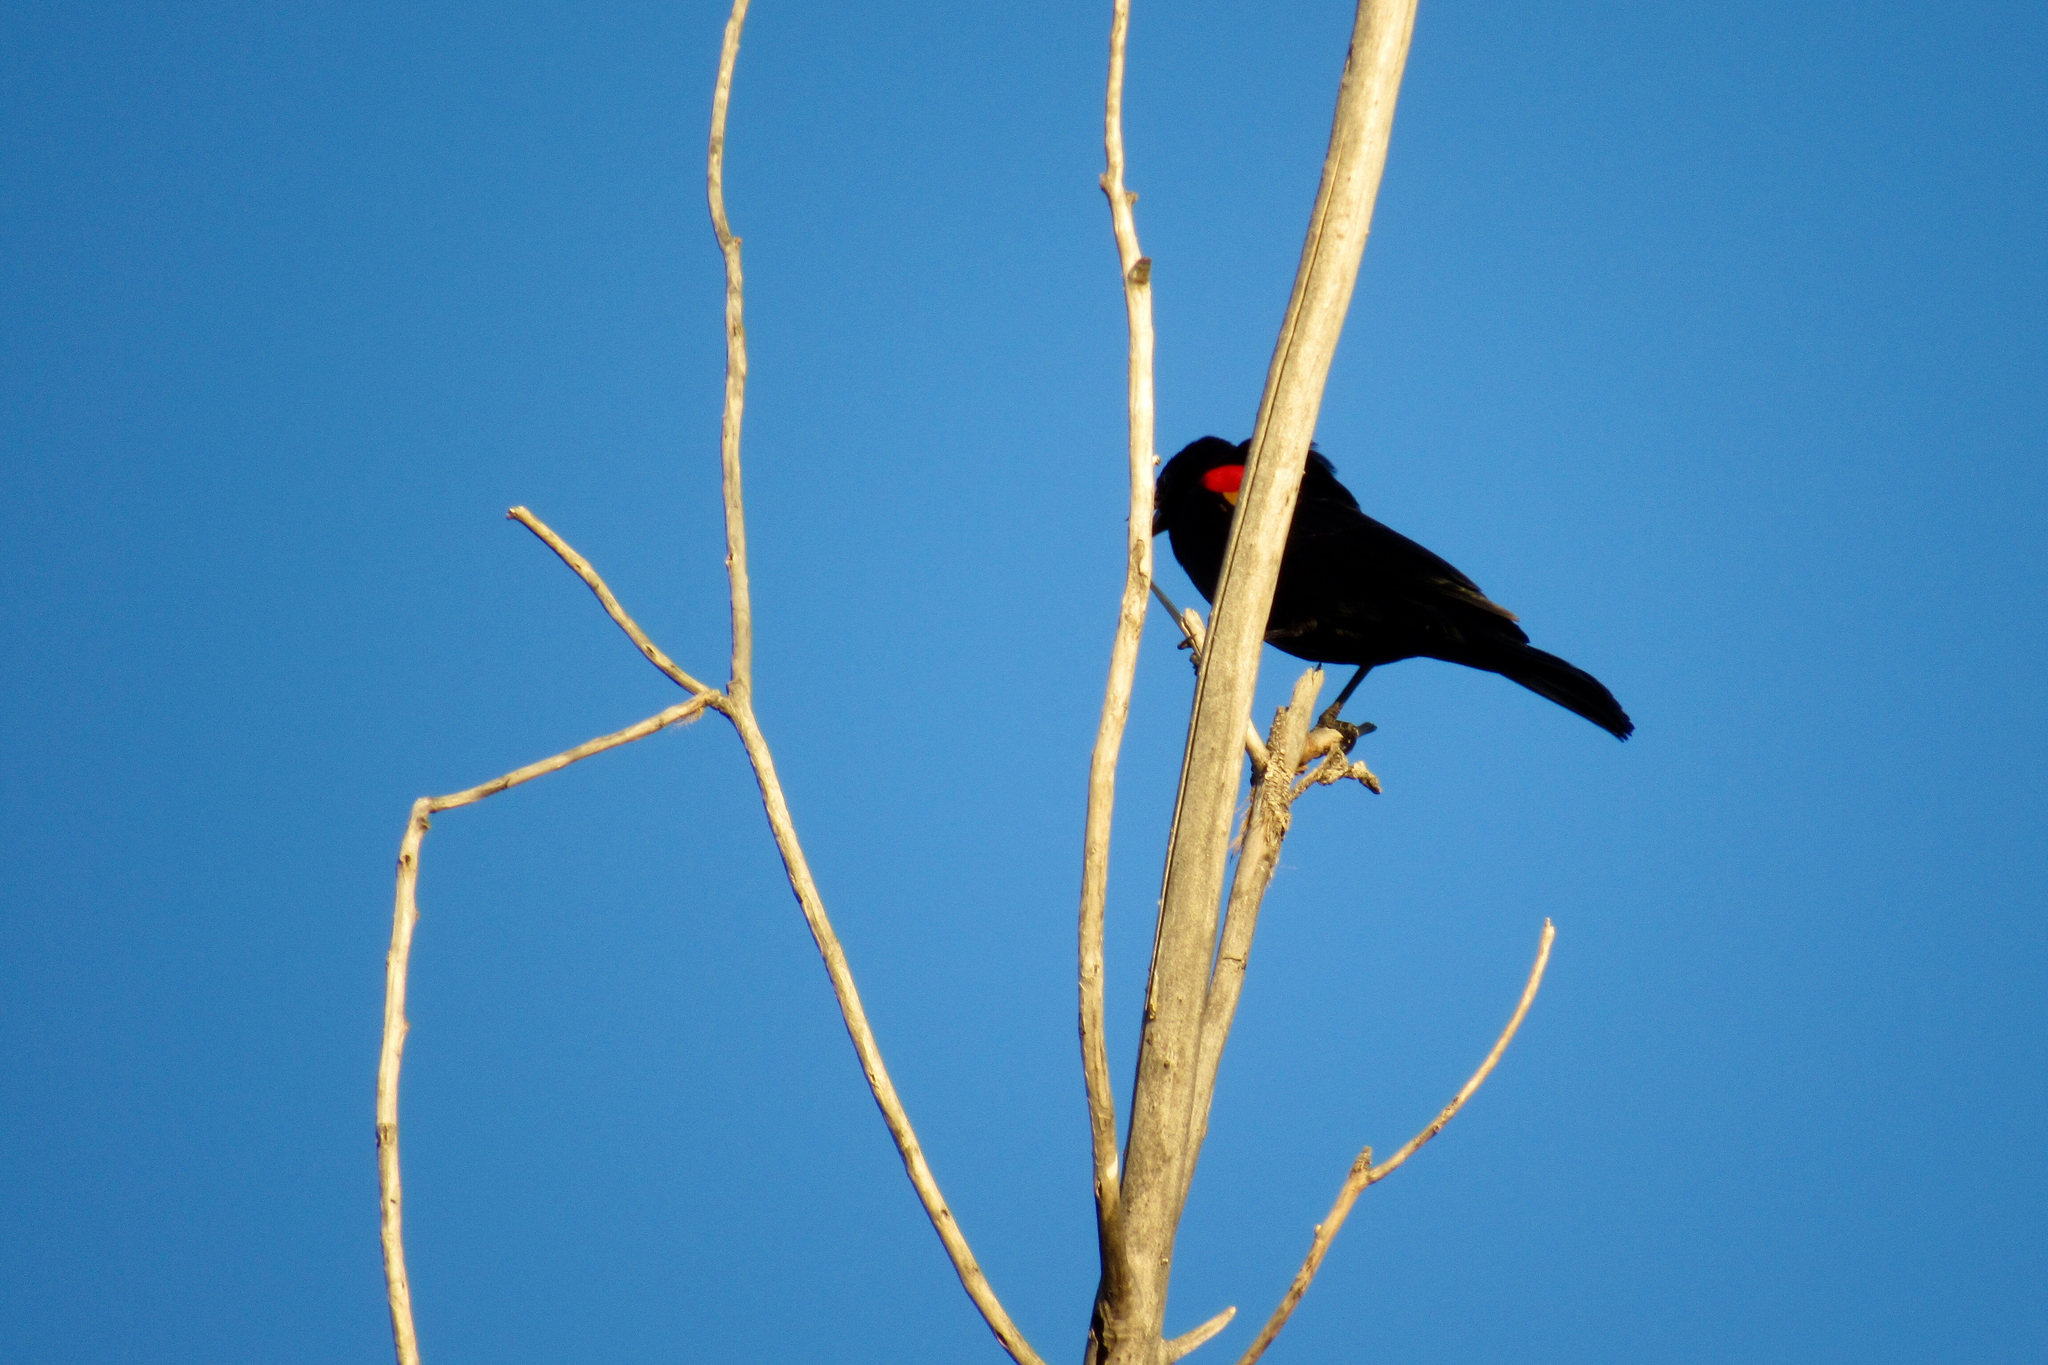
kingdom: Animalia
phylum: Chordata
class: Aves
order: Passeriformes
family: Icteridae
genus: Agelaius
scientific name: Agelaius phoeniceus
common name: Red-winged blackbird
